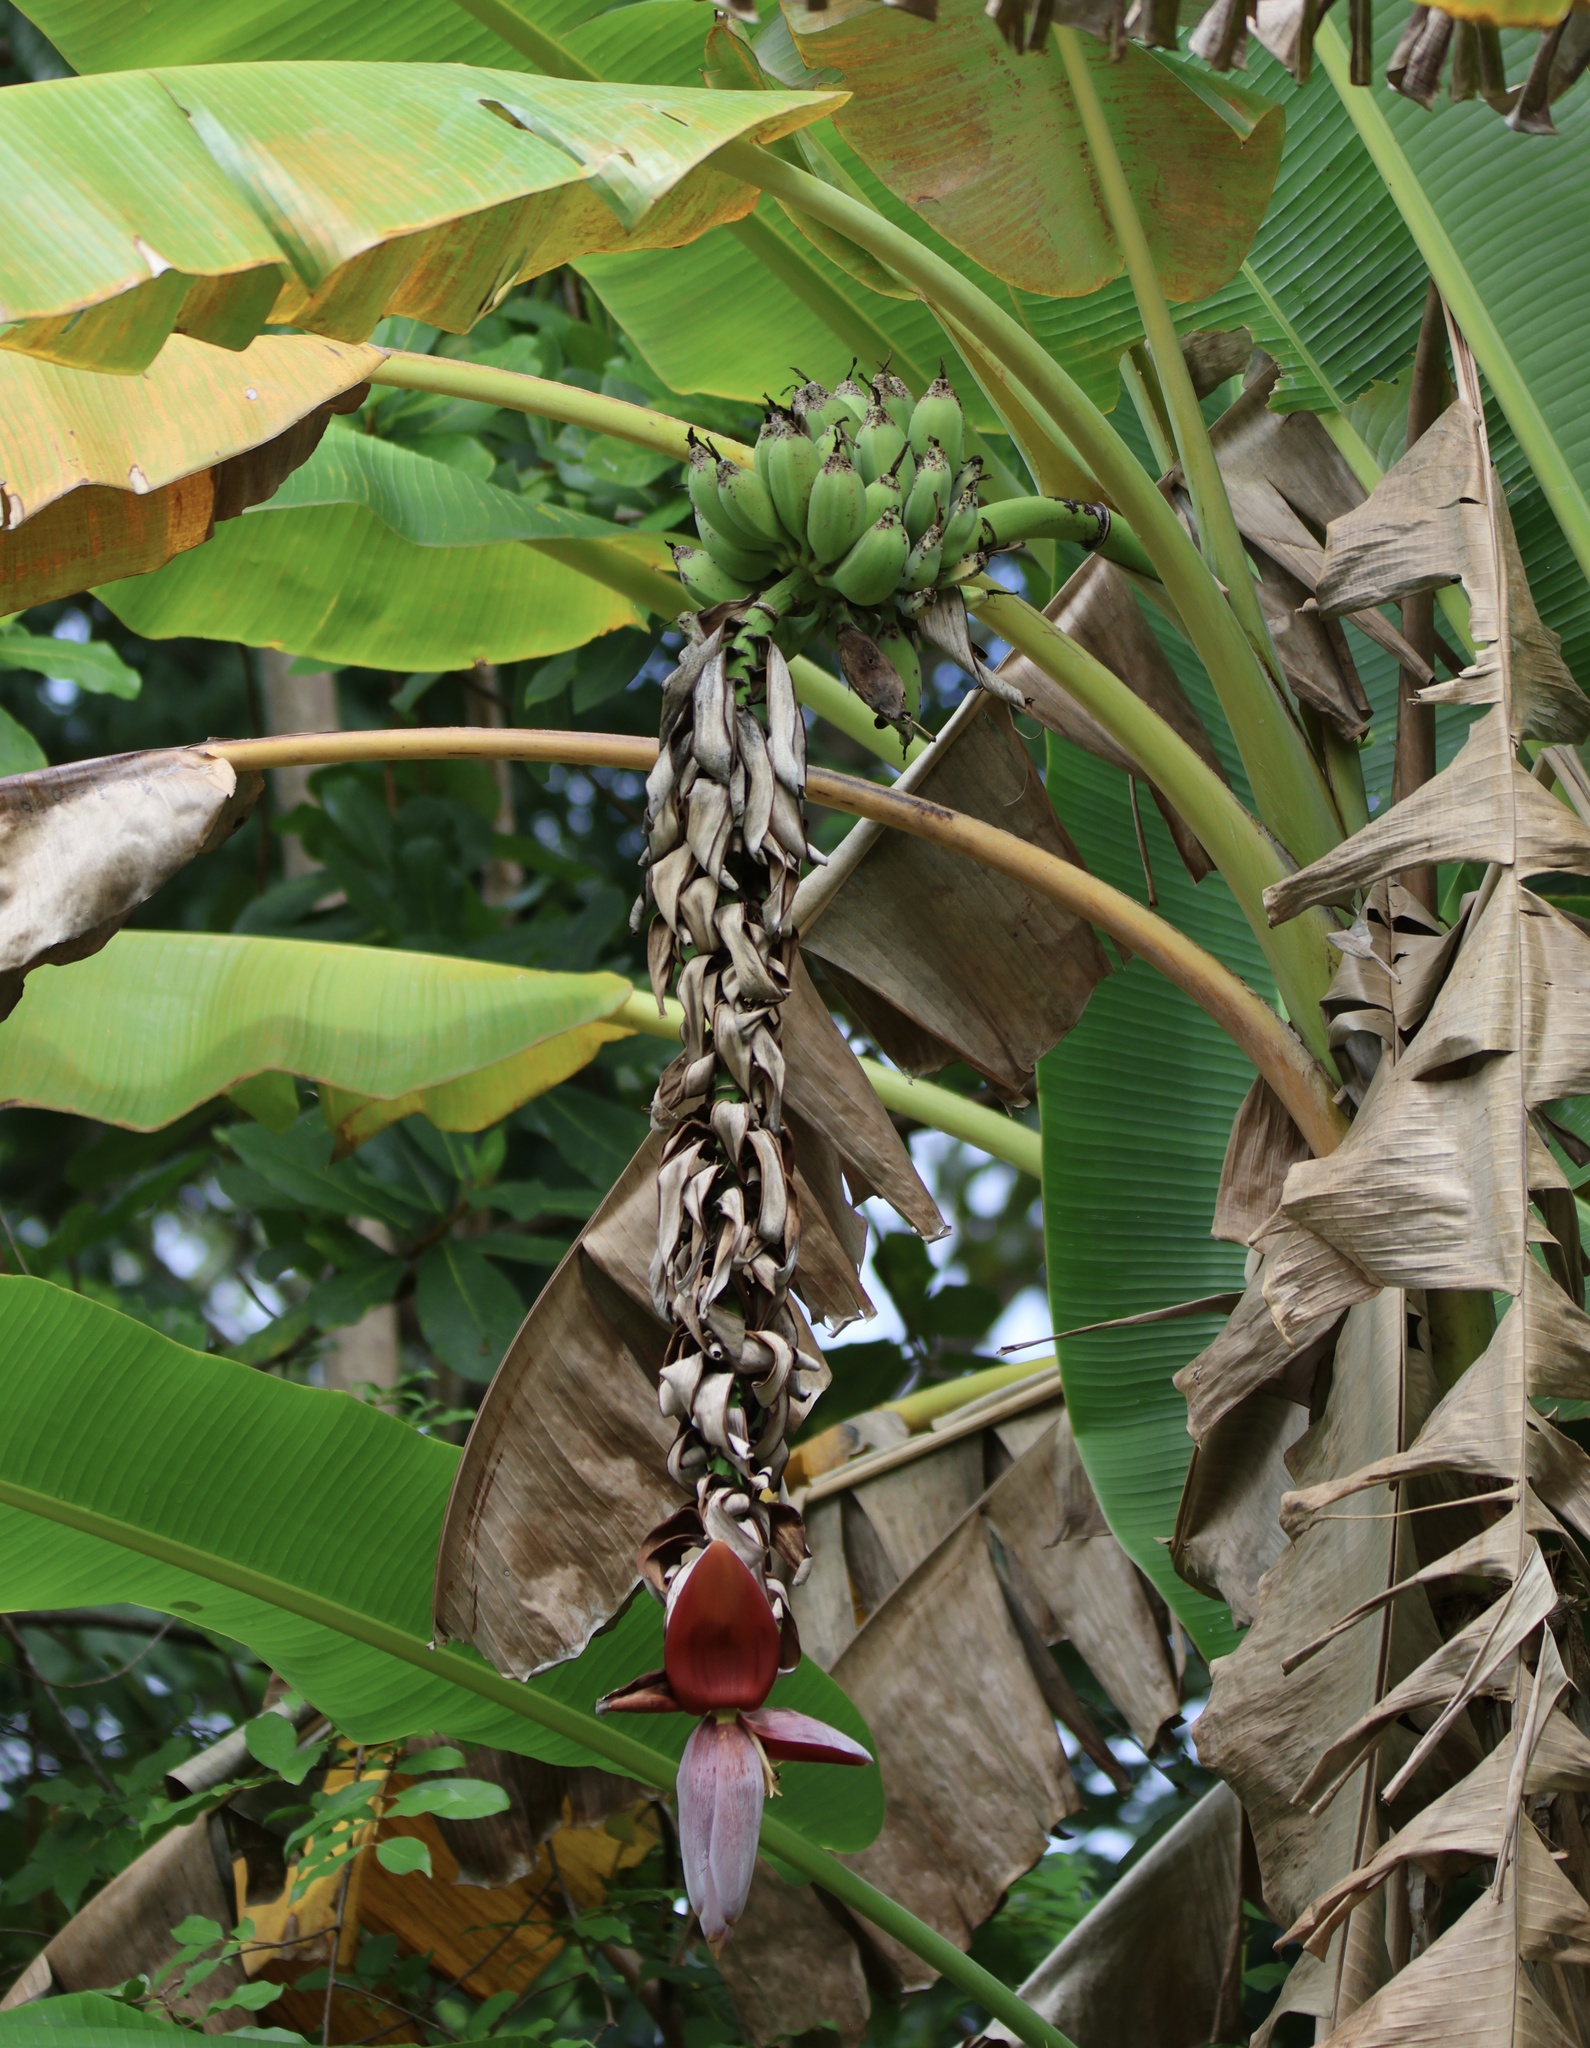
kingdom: Plantae
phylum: Tracheophyta
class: Liliopsida
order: Zingiberales
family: Musaceae
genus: Musa
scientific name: Musa balbisiana
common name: Plantain
